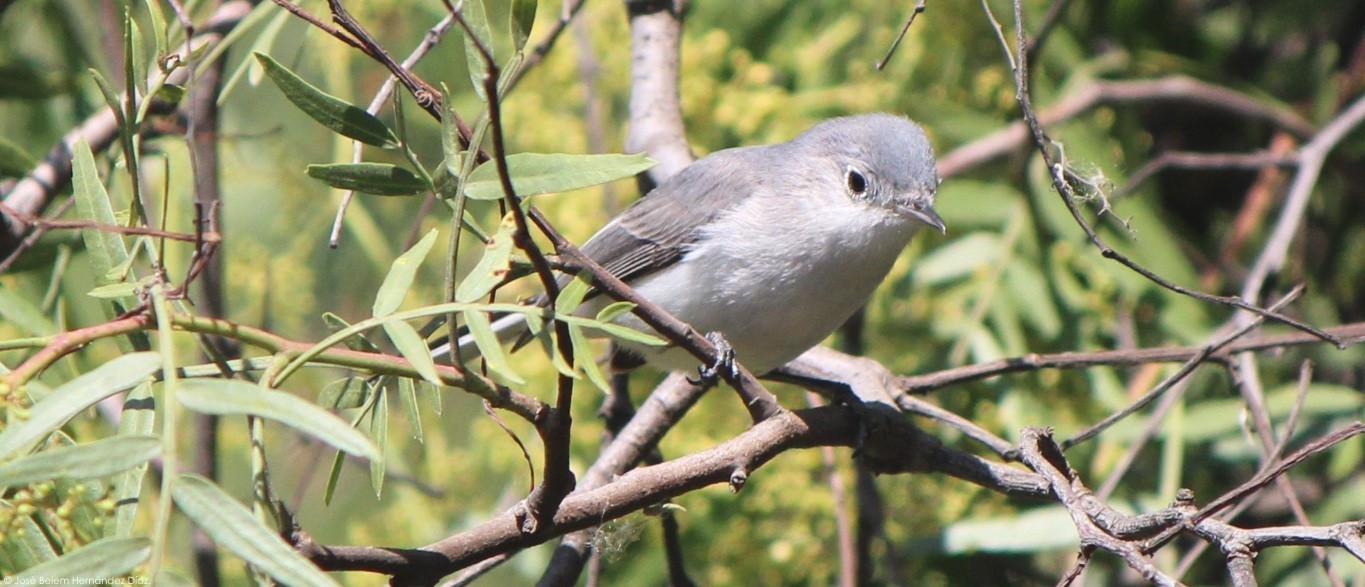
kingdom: Animalia
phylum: Chordata
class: Aves
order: Passeriformes
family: Polioptilidae
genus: Polioptila
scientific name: Polioptila caerulea
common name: Blue-gray gnatcatcher
